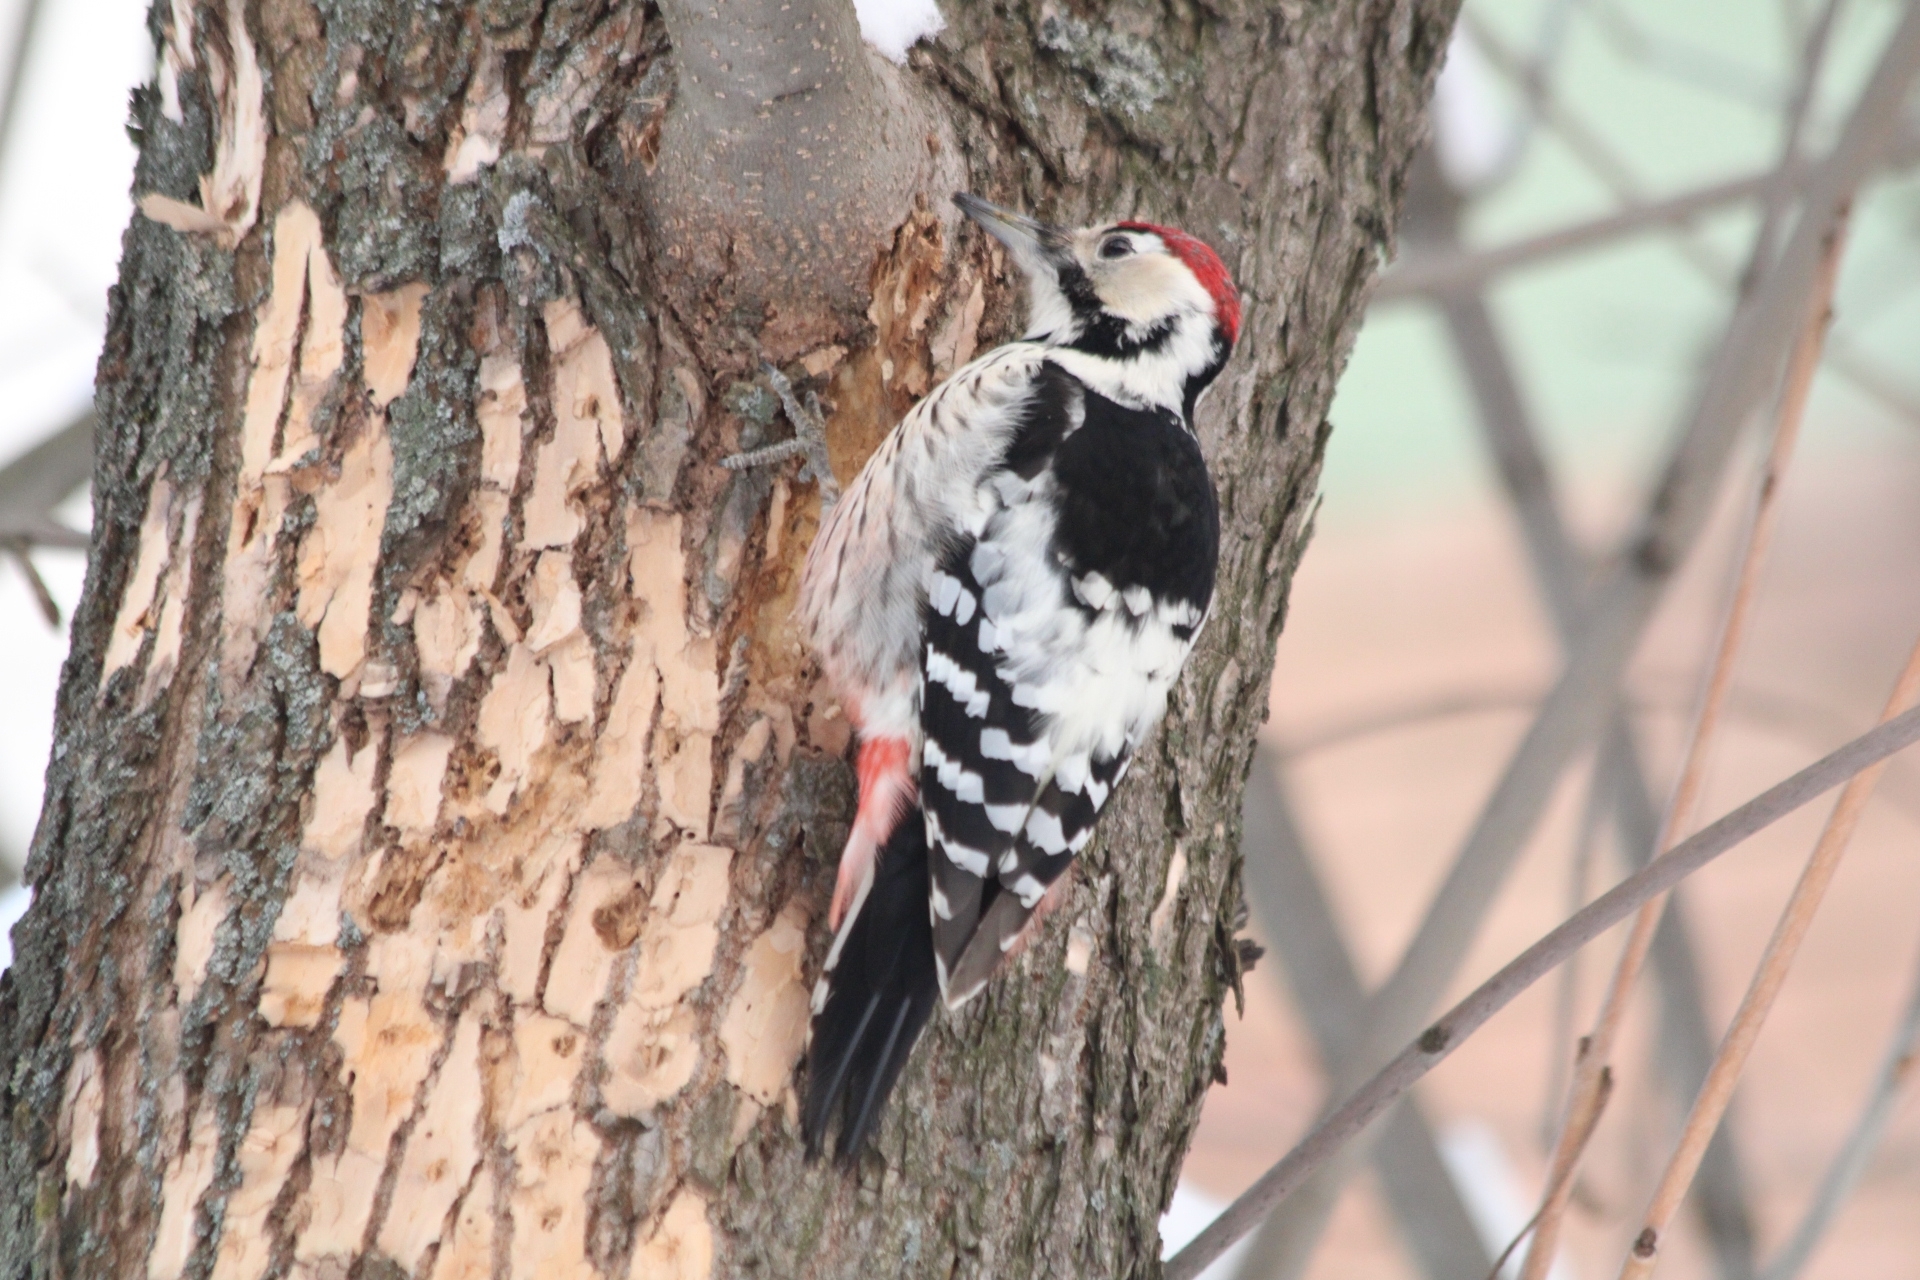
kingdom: Animalia
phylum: Chordata
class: Aves
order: Piciformes
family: Picidae
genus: Dendrocopos
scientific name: Dendrocopos leucotos
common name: White-backed woodpecker
